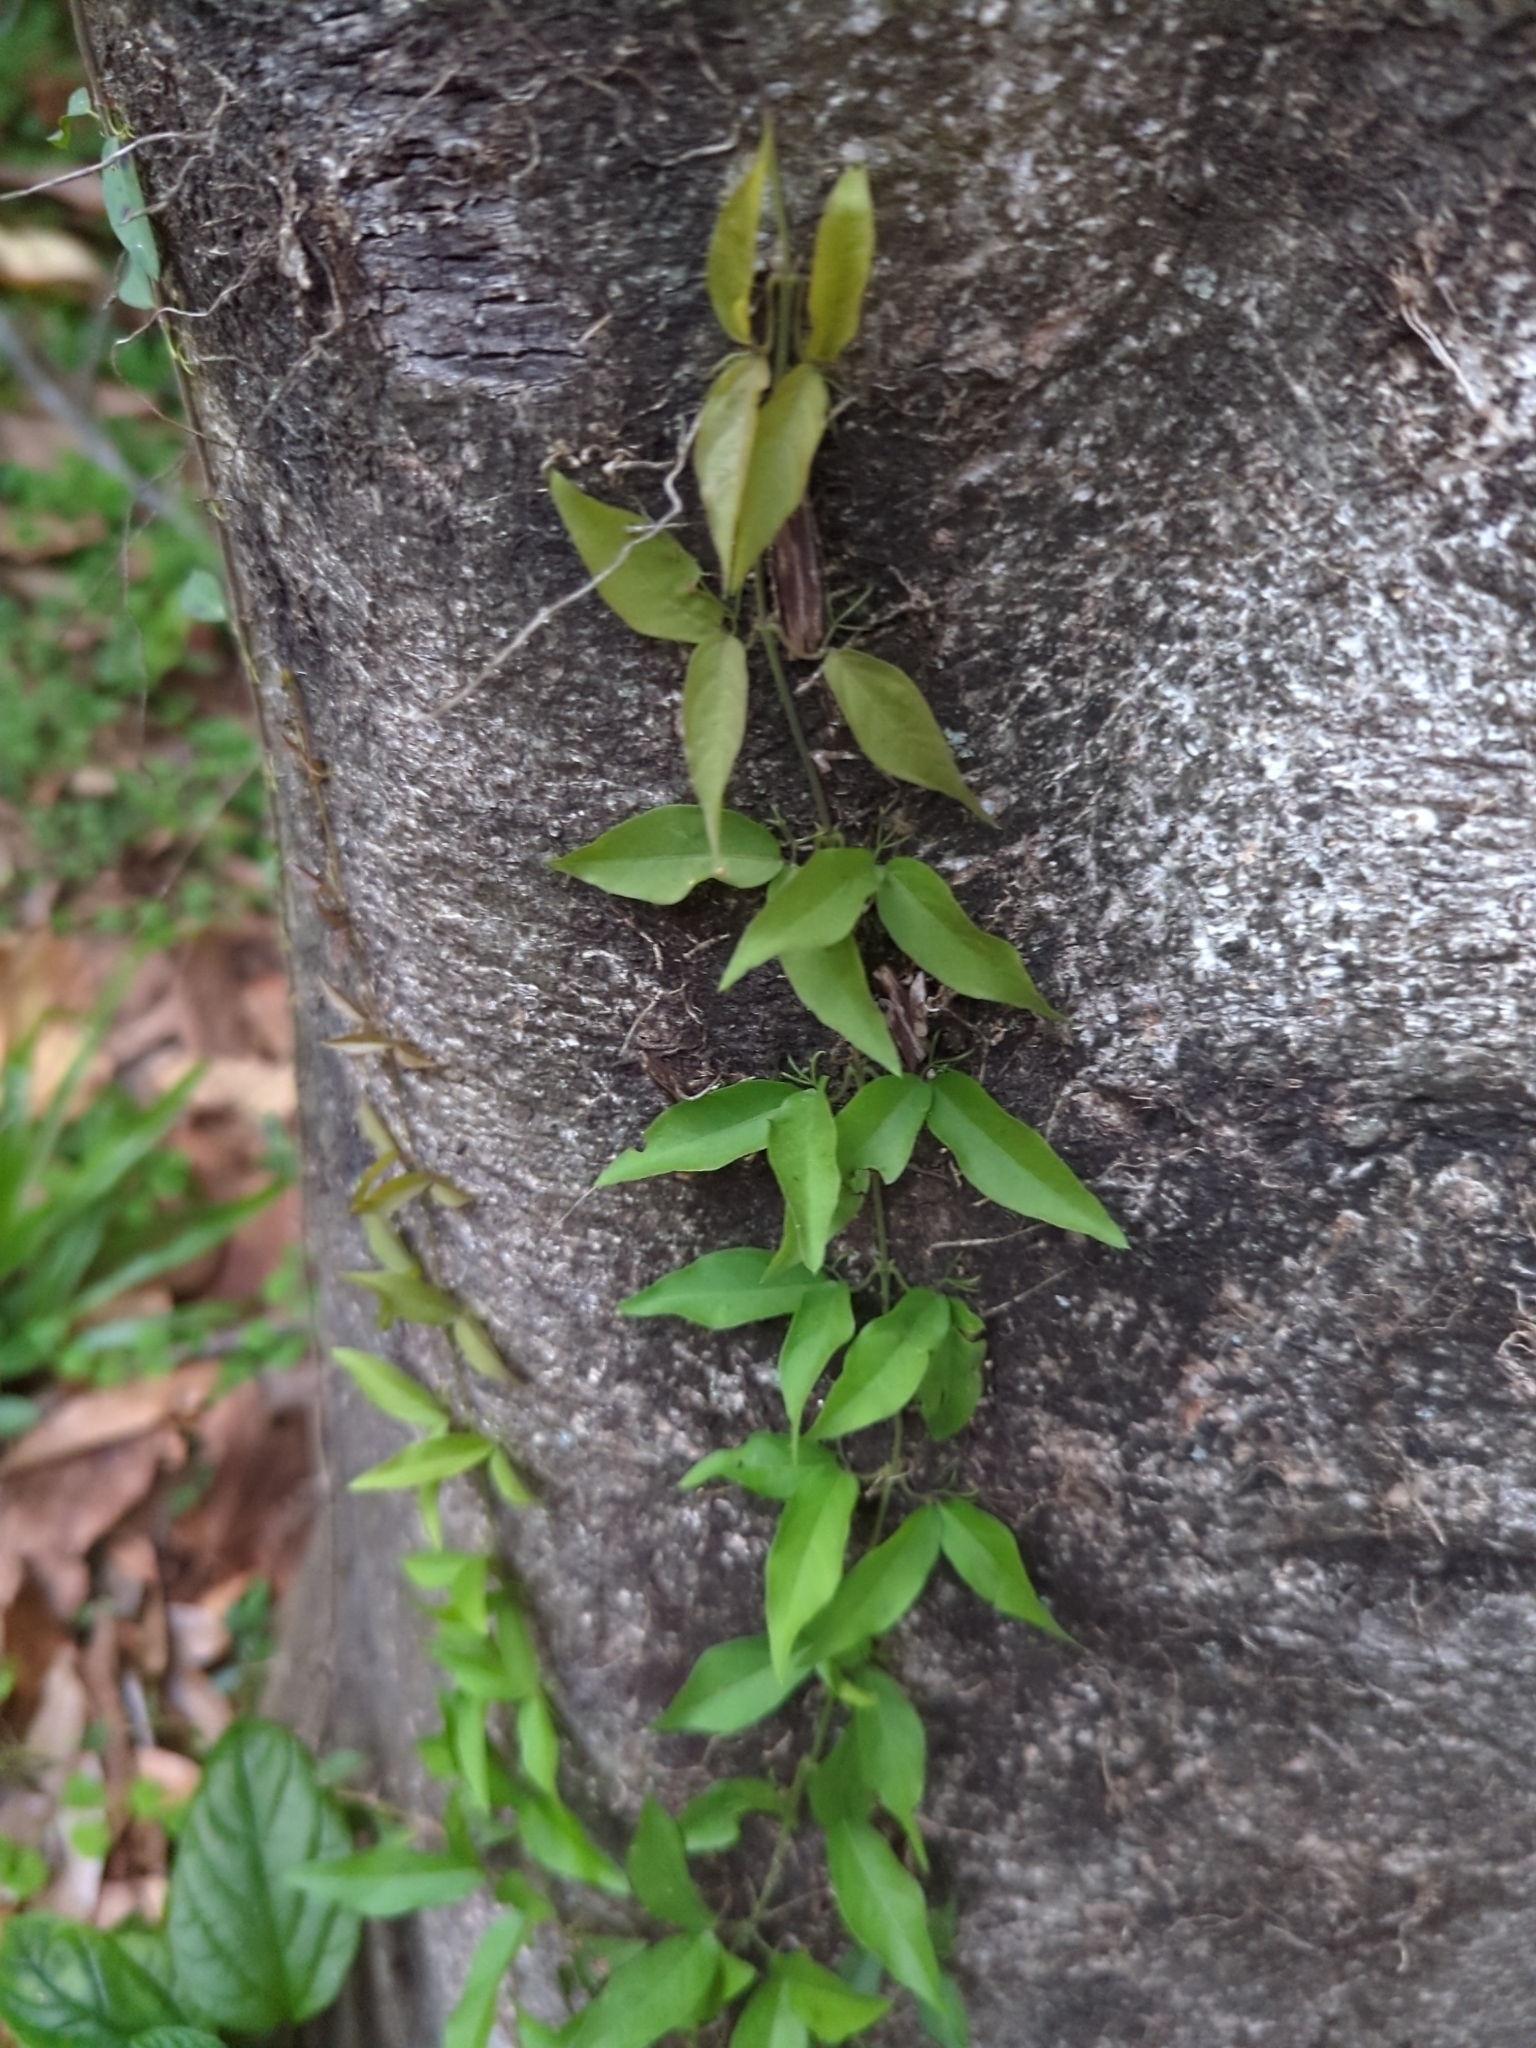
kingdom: Plantae
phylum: Tracheophyta
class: Magnoliopsida
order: Lamiales
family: Bignoniaceae
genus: Dolichandra
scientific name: Dolichandra unguis-cati
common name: Catclaw vine
